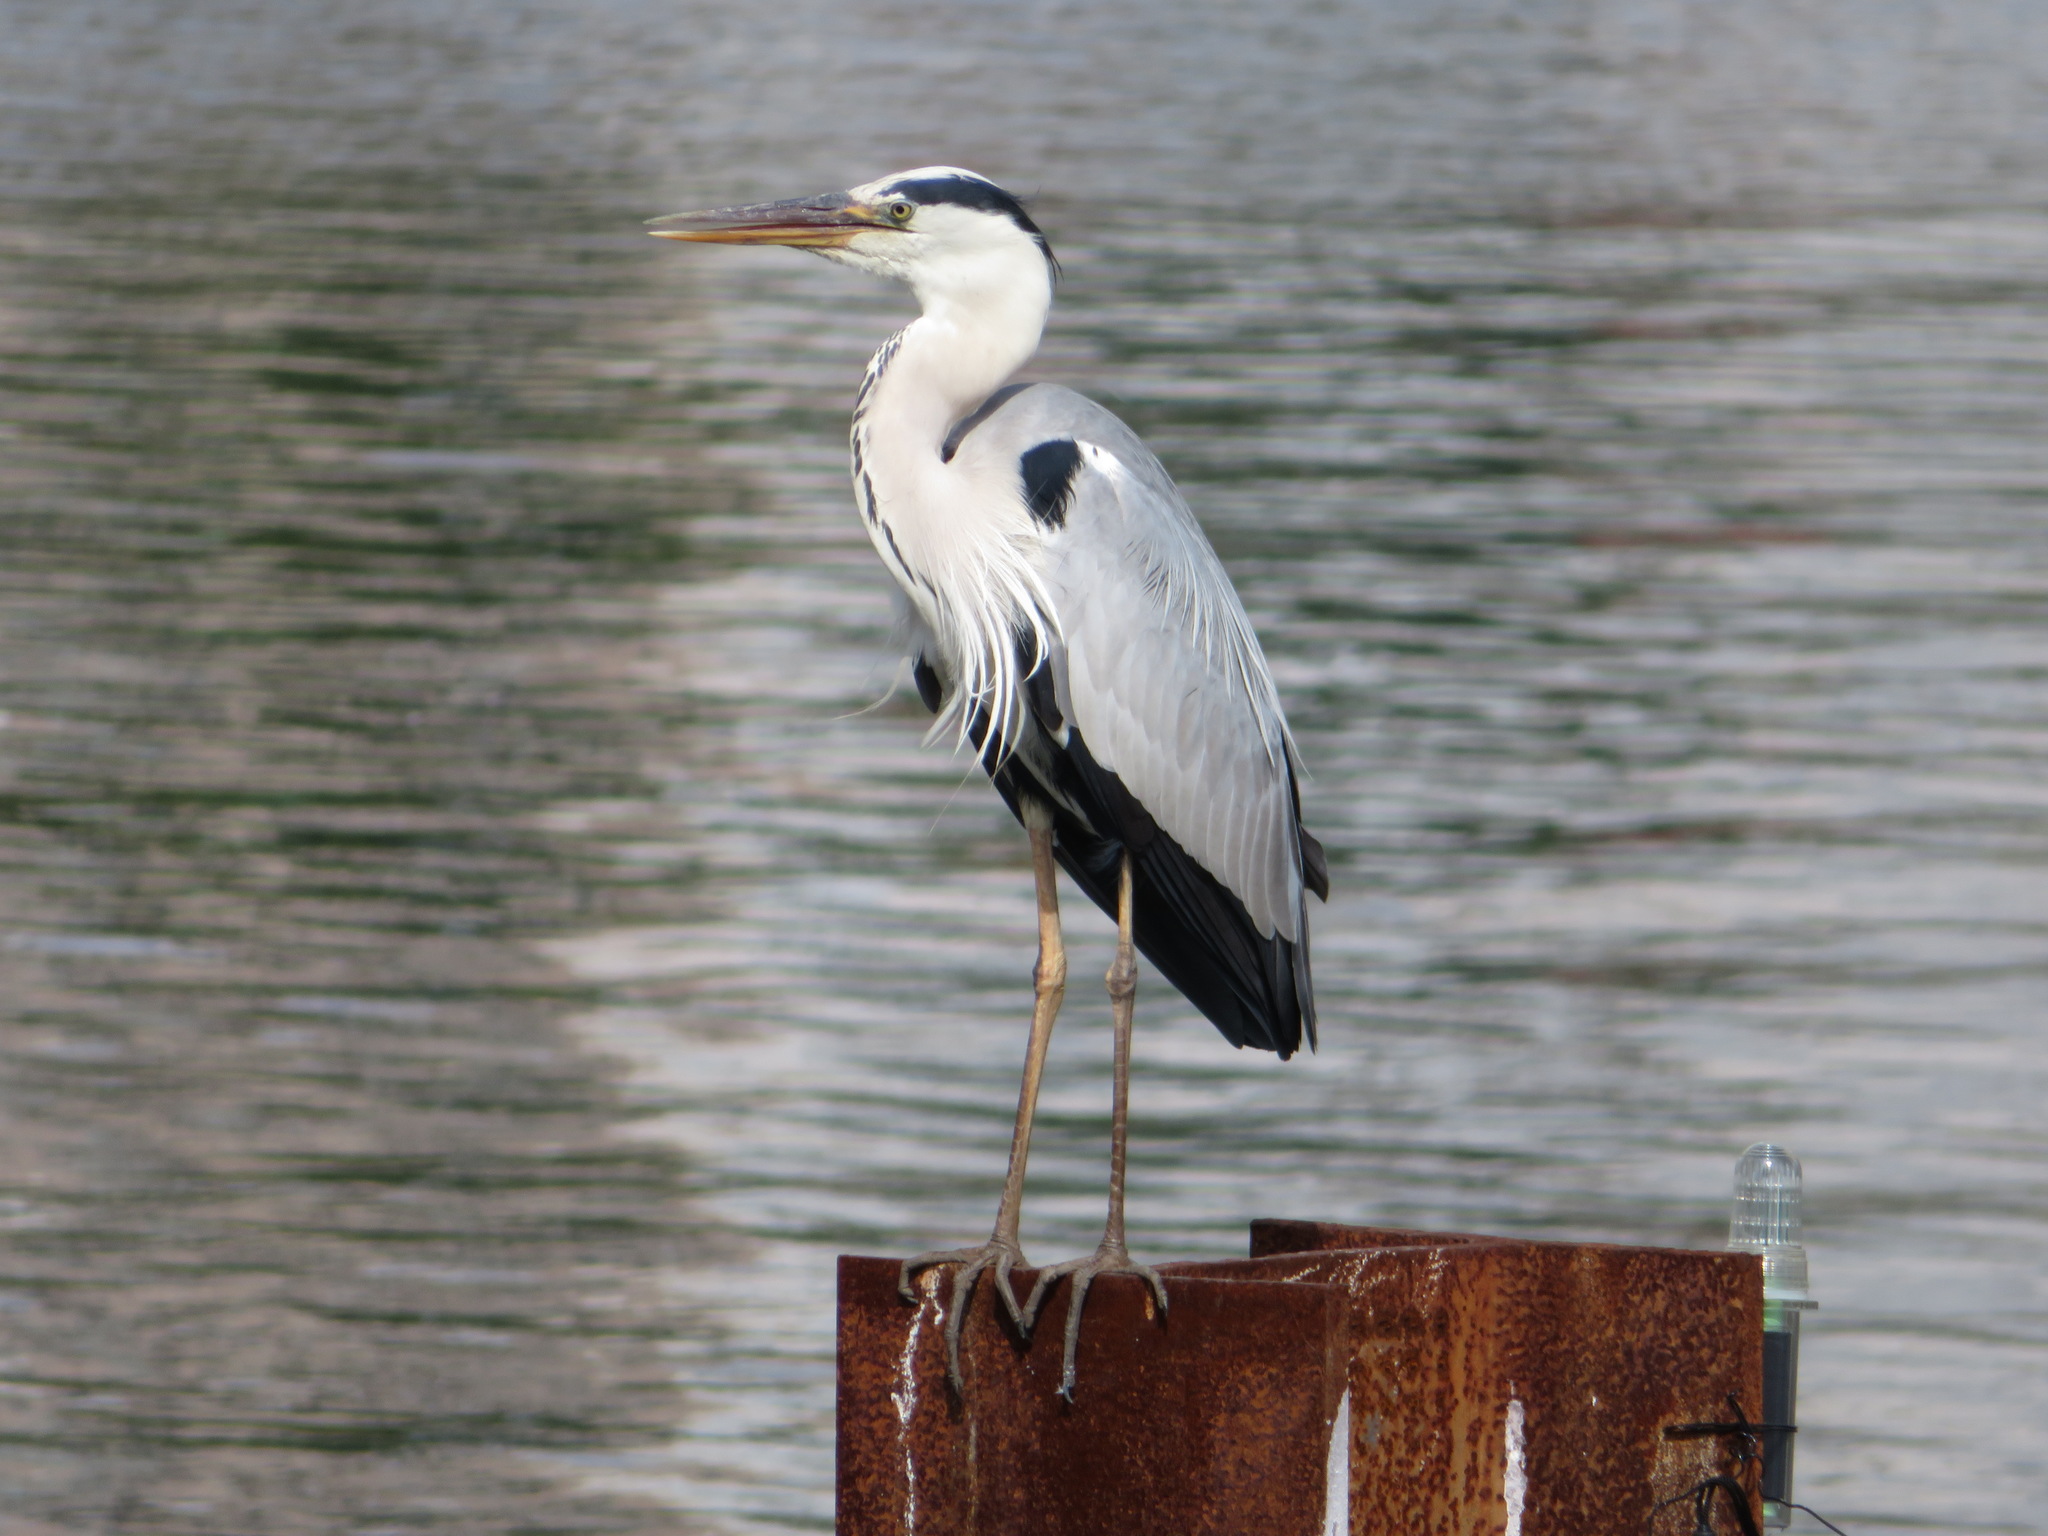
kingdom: Animalia
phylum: Chordata
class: Aves
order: Pelecaniformes
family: Ardeidae
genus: Ardea
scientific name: Ardea cinerea
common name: Grey heron
